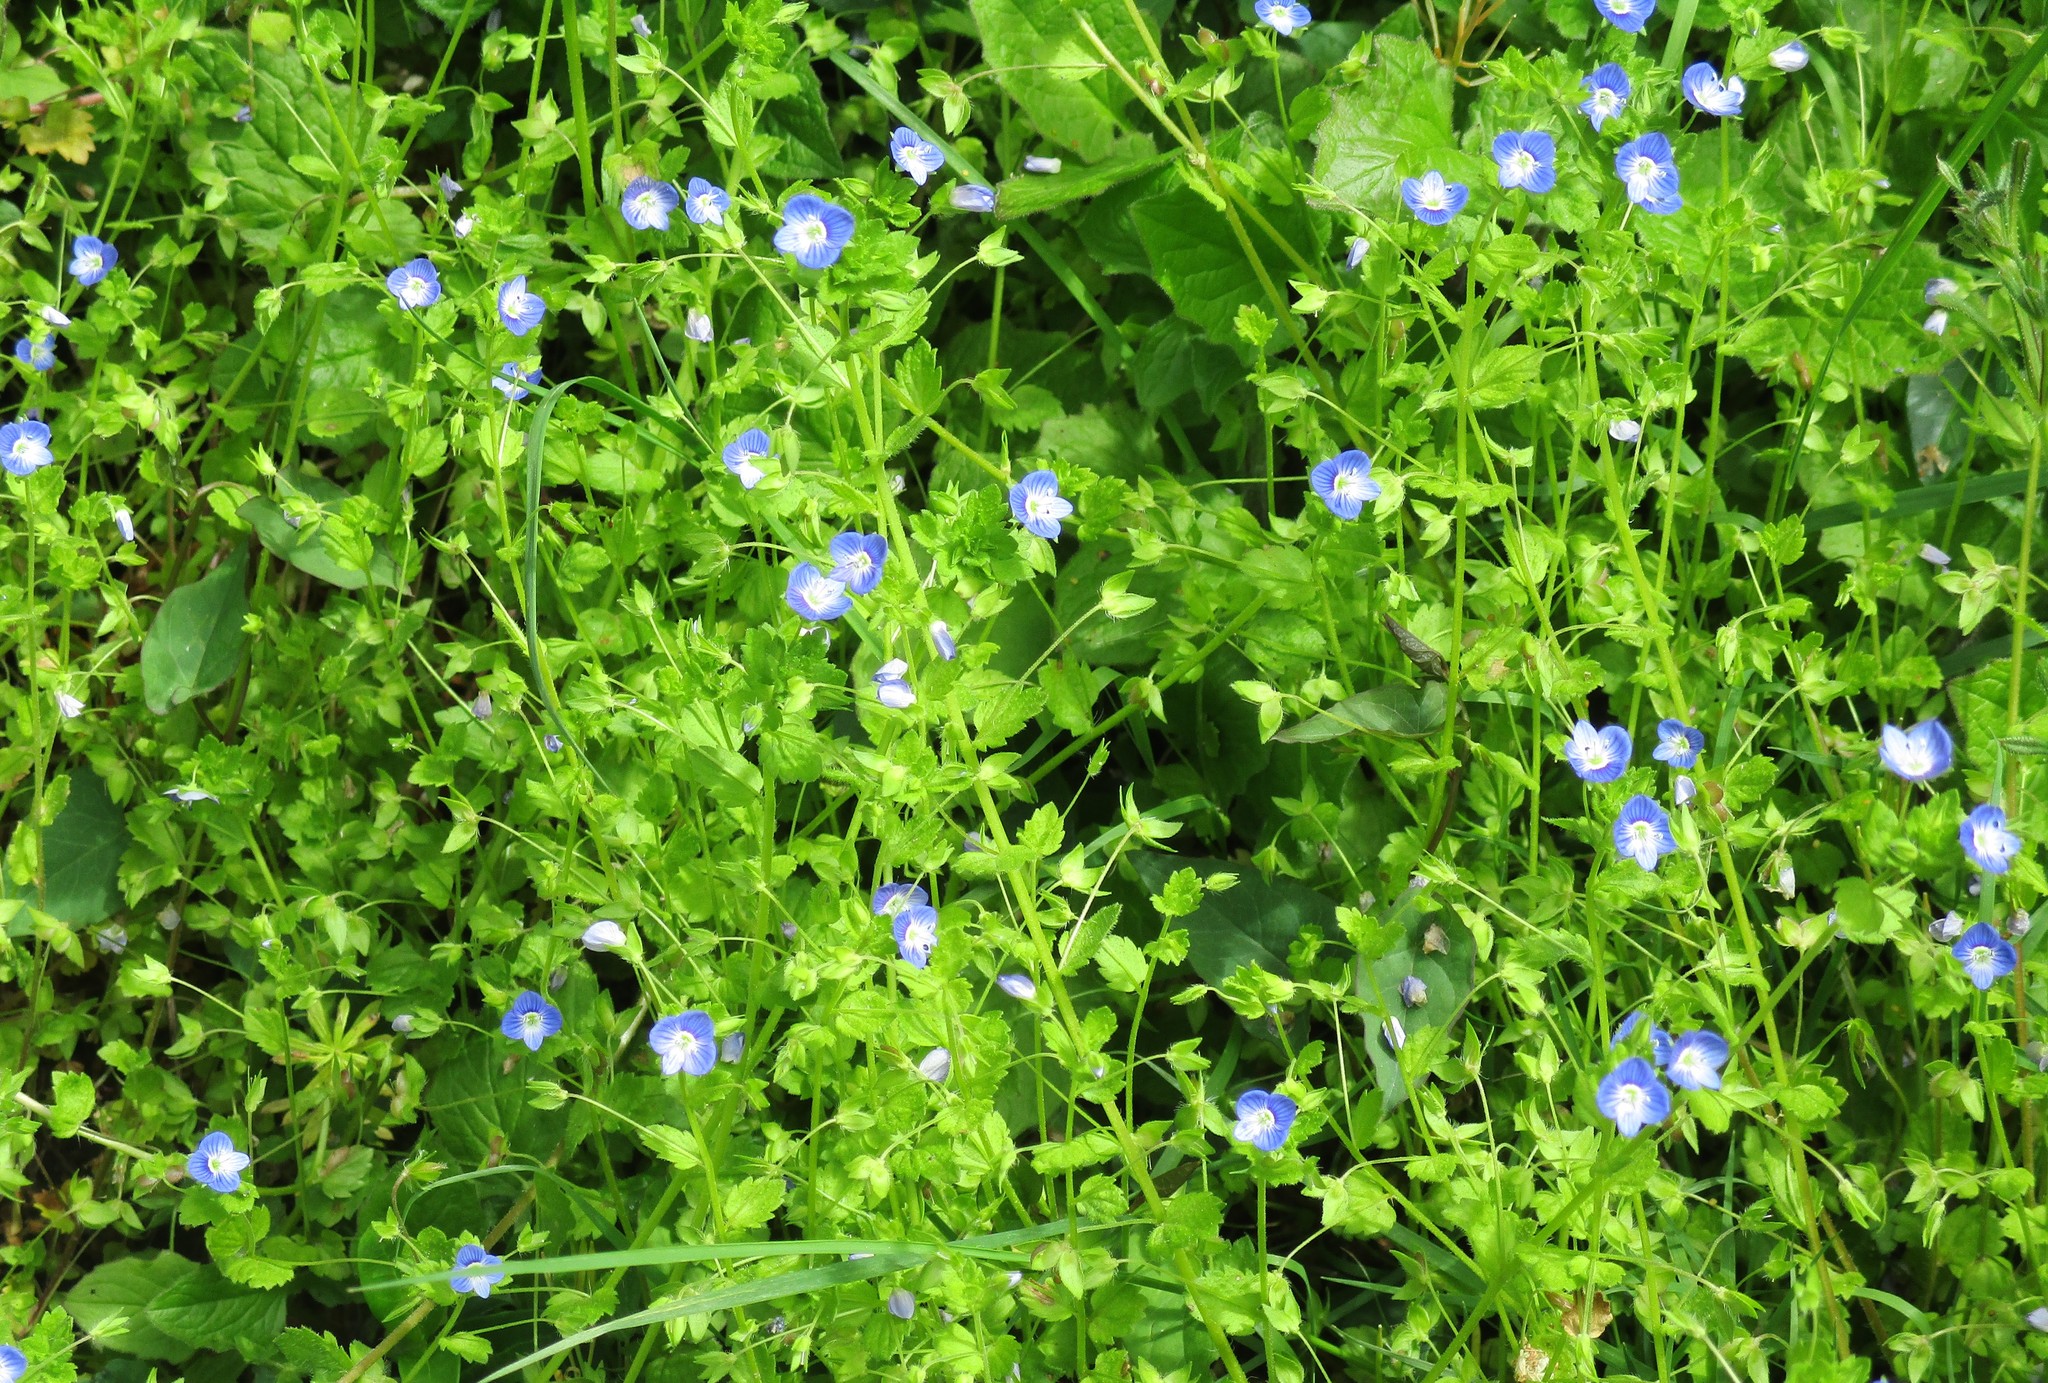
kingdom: Plantae
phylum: Tracheophyta
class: Magnoliopsida
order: Lamiales
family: Plantaginaceae
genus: Veronica
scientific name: Veronica persica
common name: Common field-speedwell
